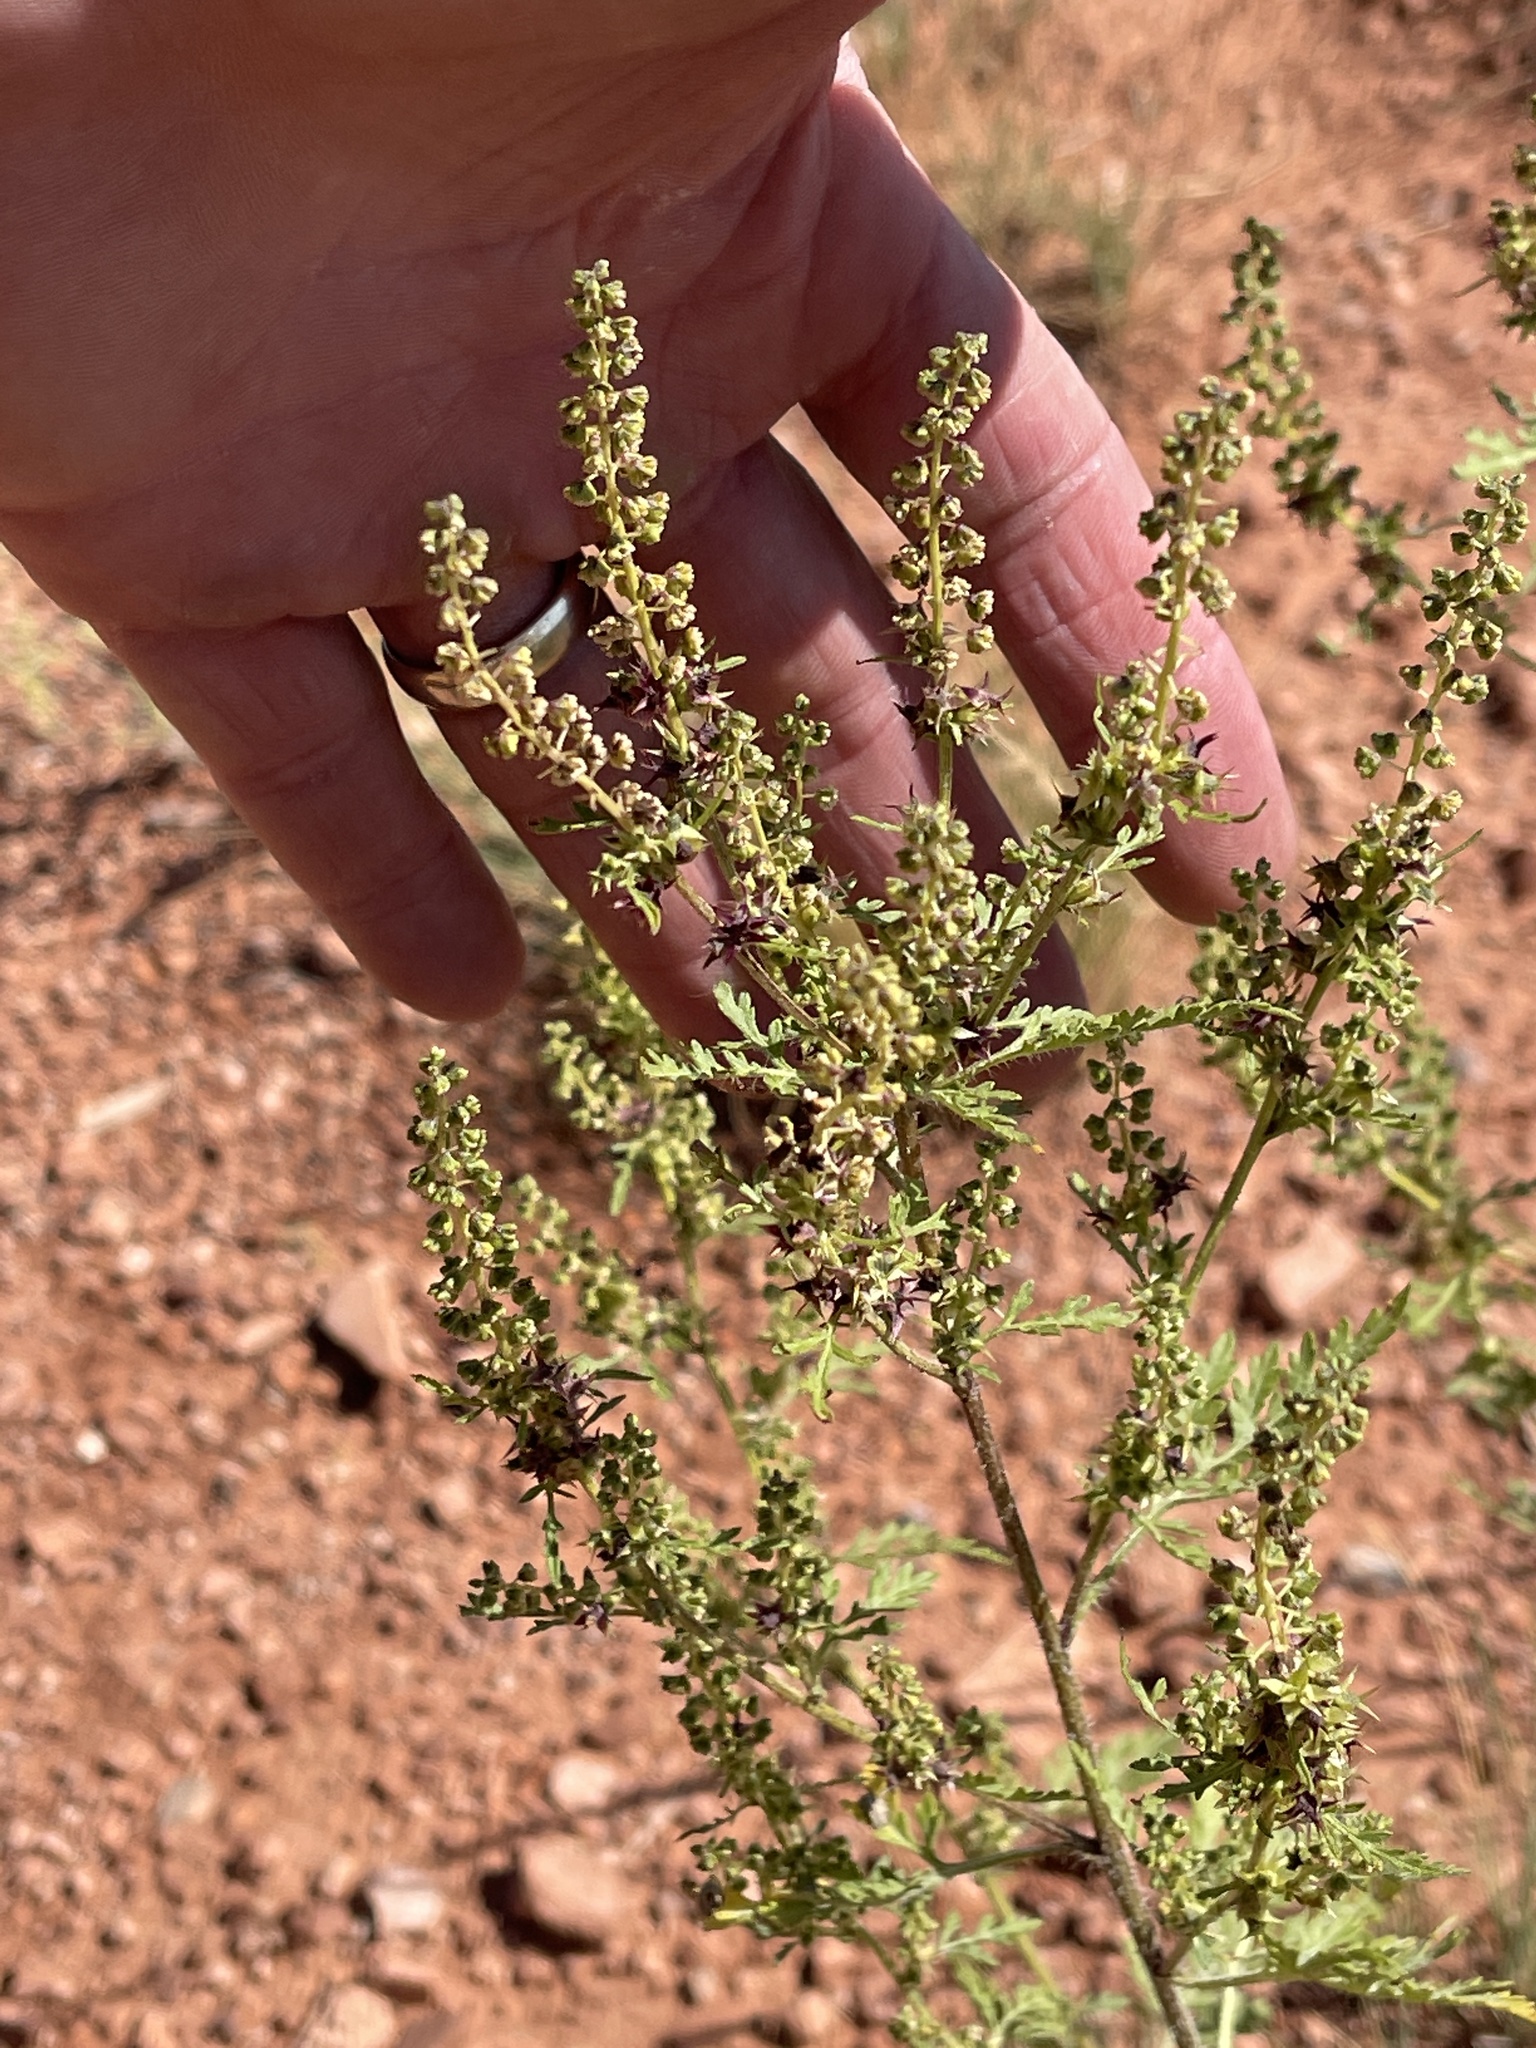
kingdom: Plantae
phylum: Tracheophyta
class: Magnoliopsida
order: Asterales
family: Asteraceae
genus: Ambrosia
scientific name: Ambrosia acanthicarpa
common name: Hooker's bur ragweed
